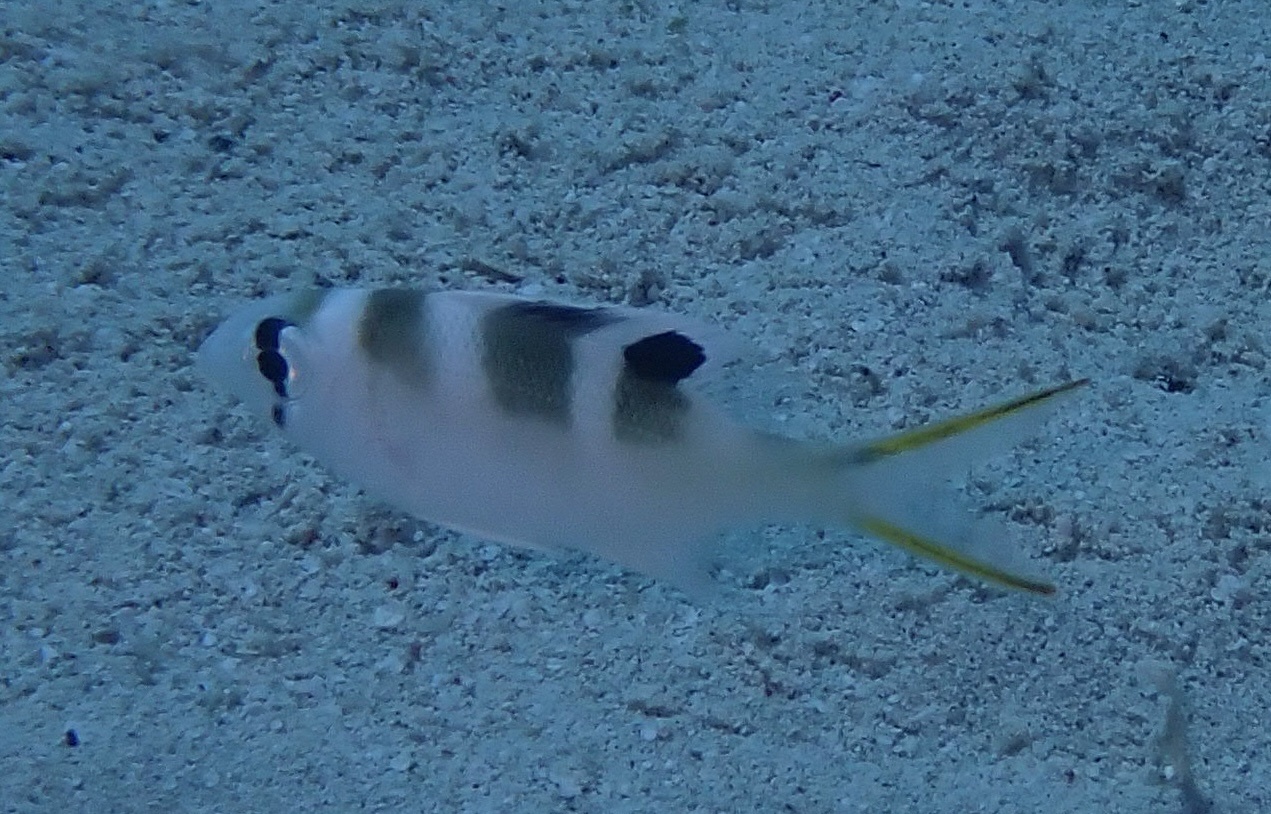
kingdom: Animalia
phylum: Chordata
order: Perciformes
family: Lethrinidae
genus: Monotaxis
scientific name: Monotaxis grandoculis
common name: Bigeye emperor
